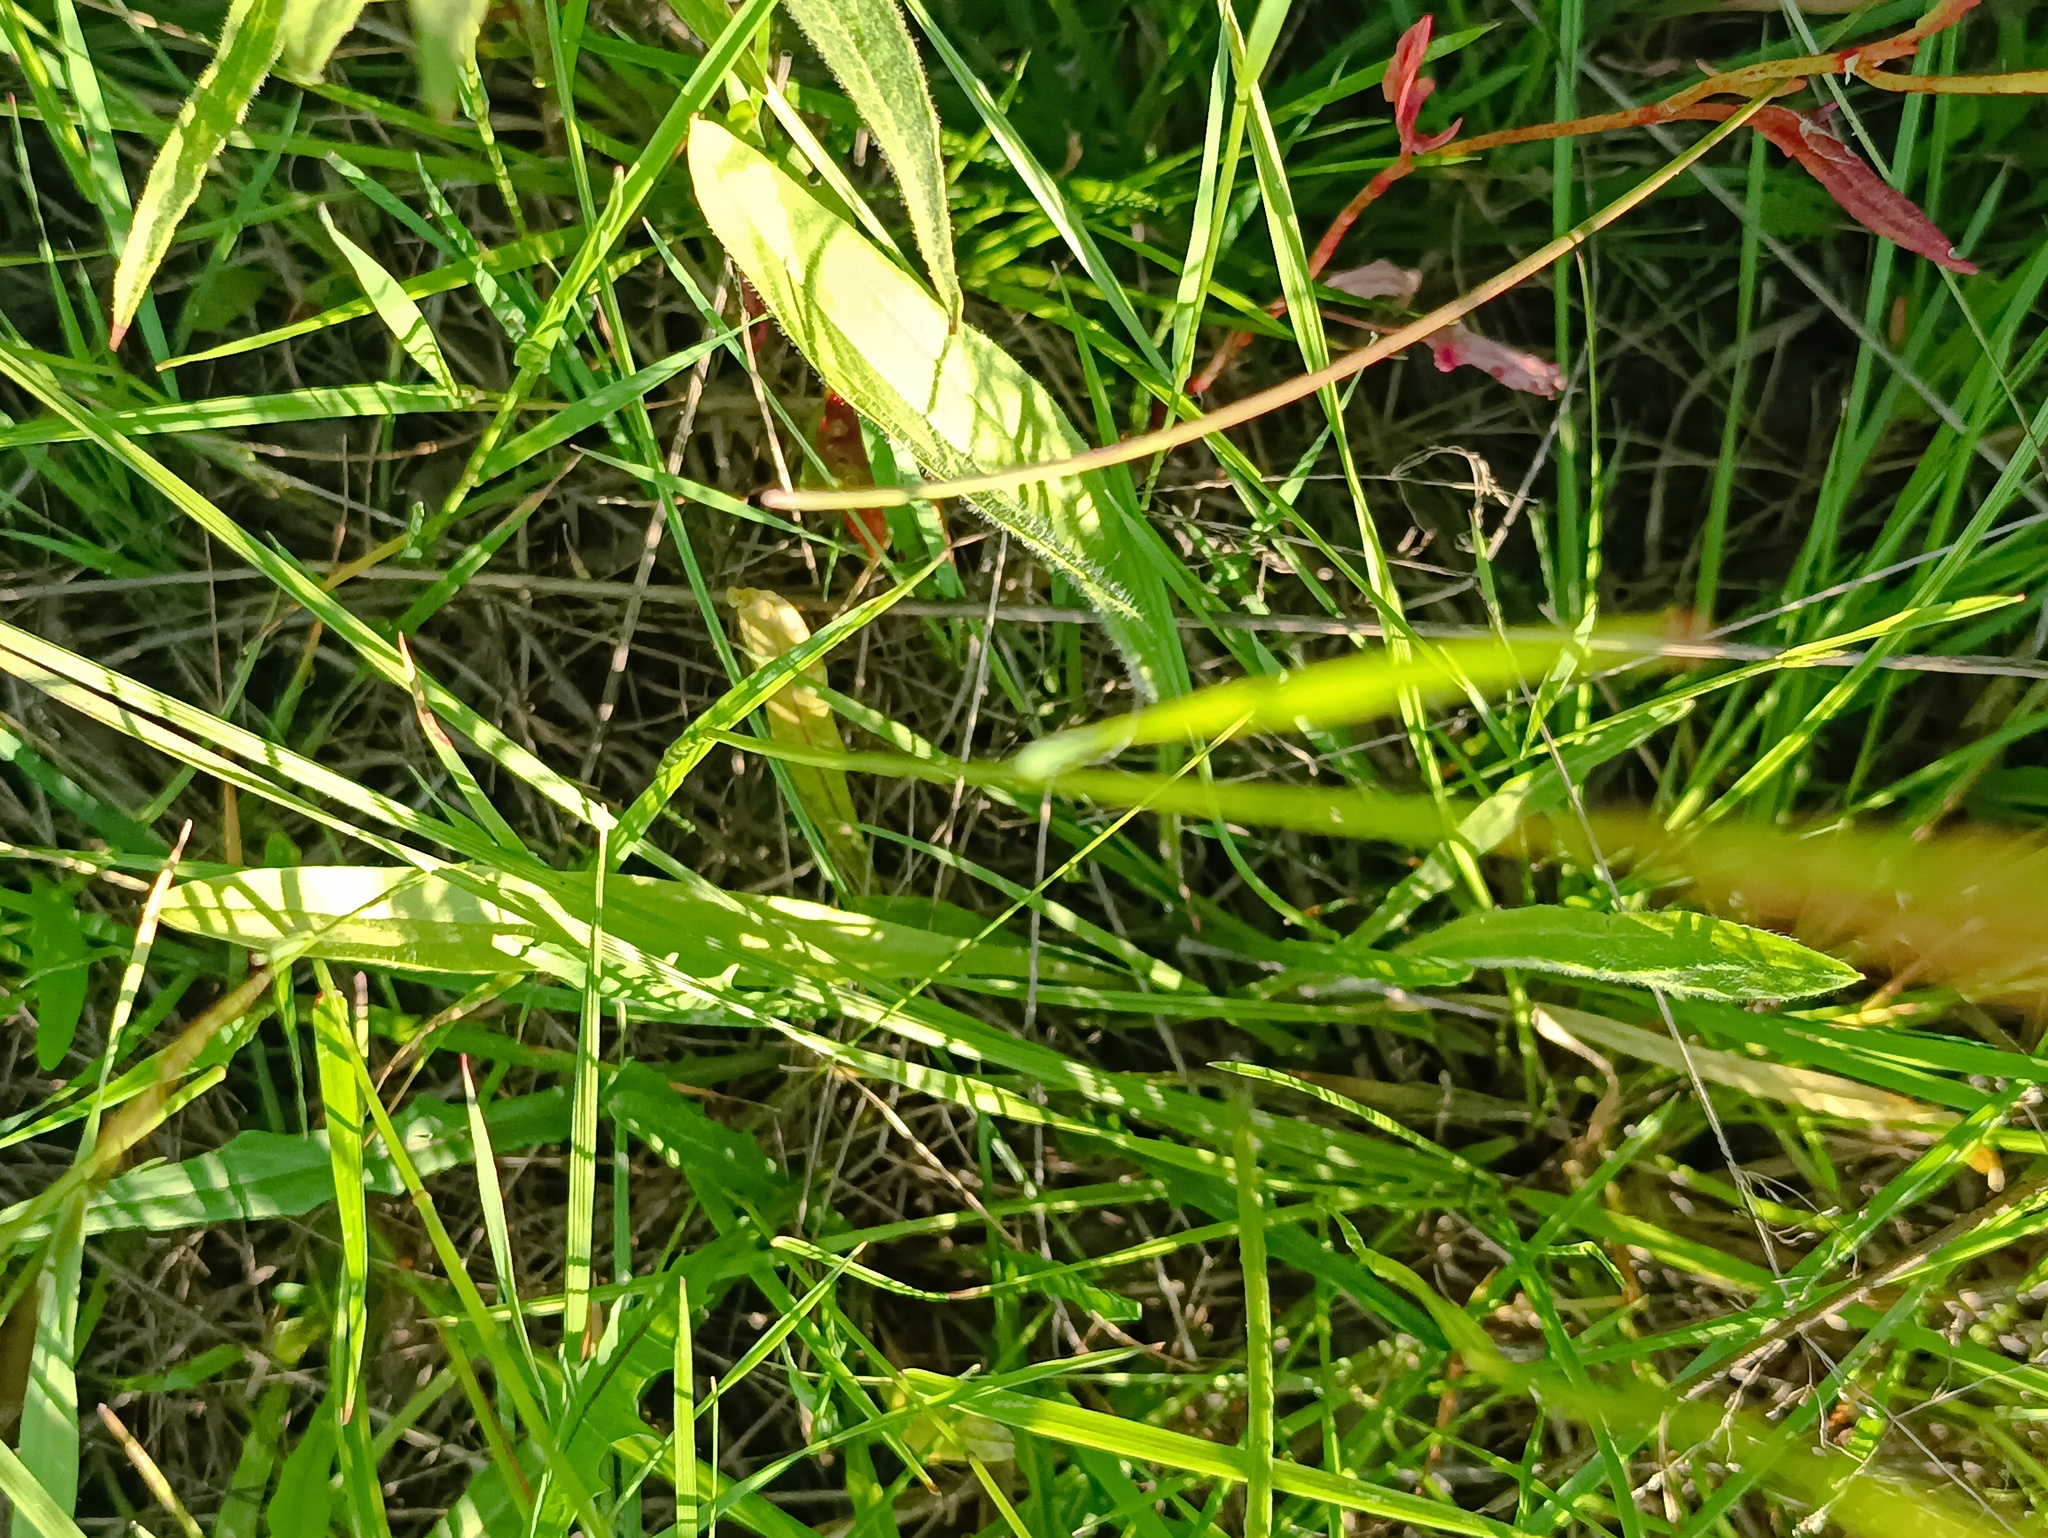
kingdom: Plantae
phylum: Tracheophyta
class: Magnoliopsida
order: Lamiales
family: Plantaginaceae
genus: Plantago
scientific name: Plantago lanceolata
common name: Ribwort plantain
